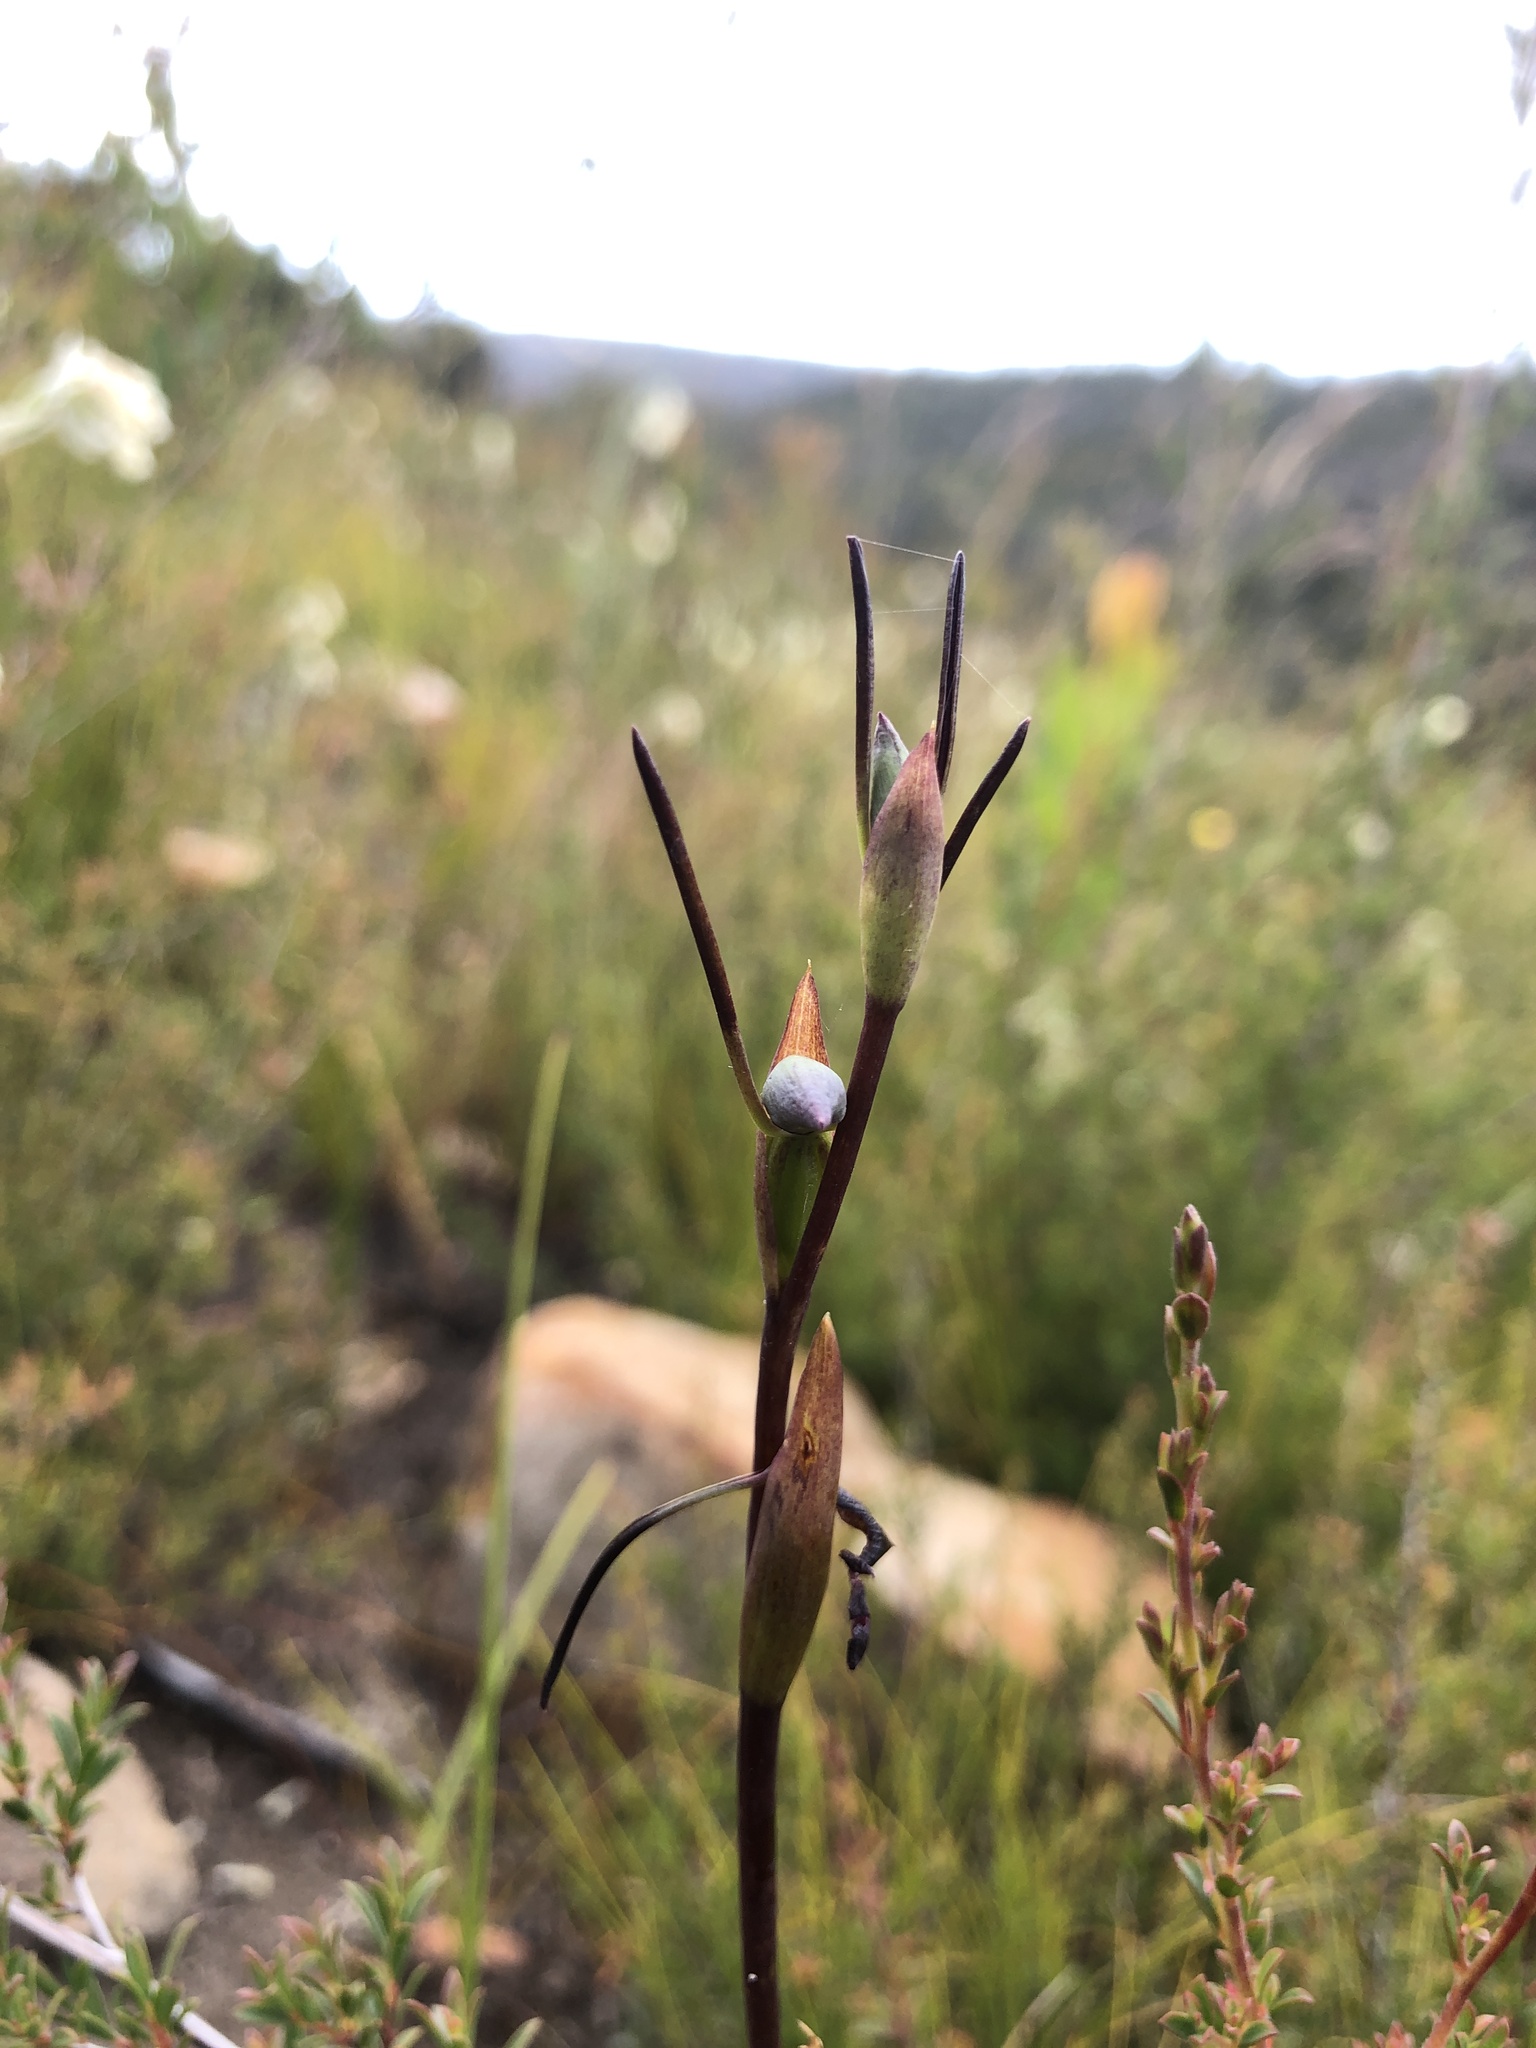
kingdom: Plantae
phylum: Tracheophyta
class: Liliopsida
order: Asparagales
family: Orchidaceae
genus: Orthoceras
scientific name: Orthoceras strictum
